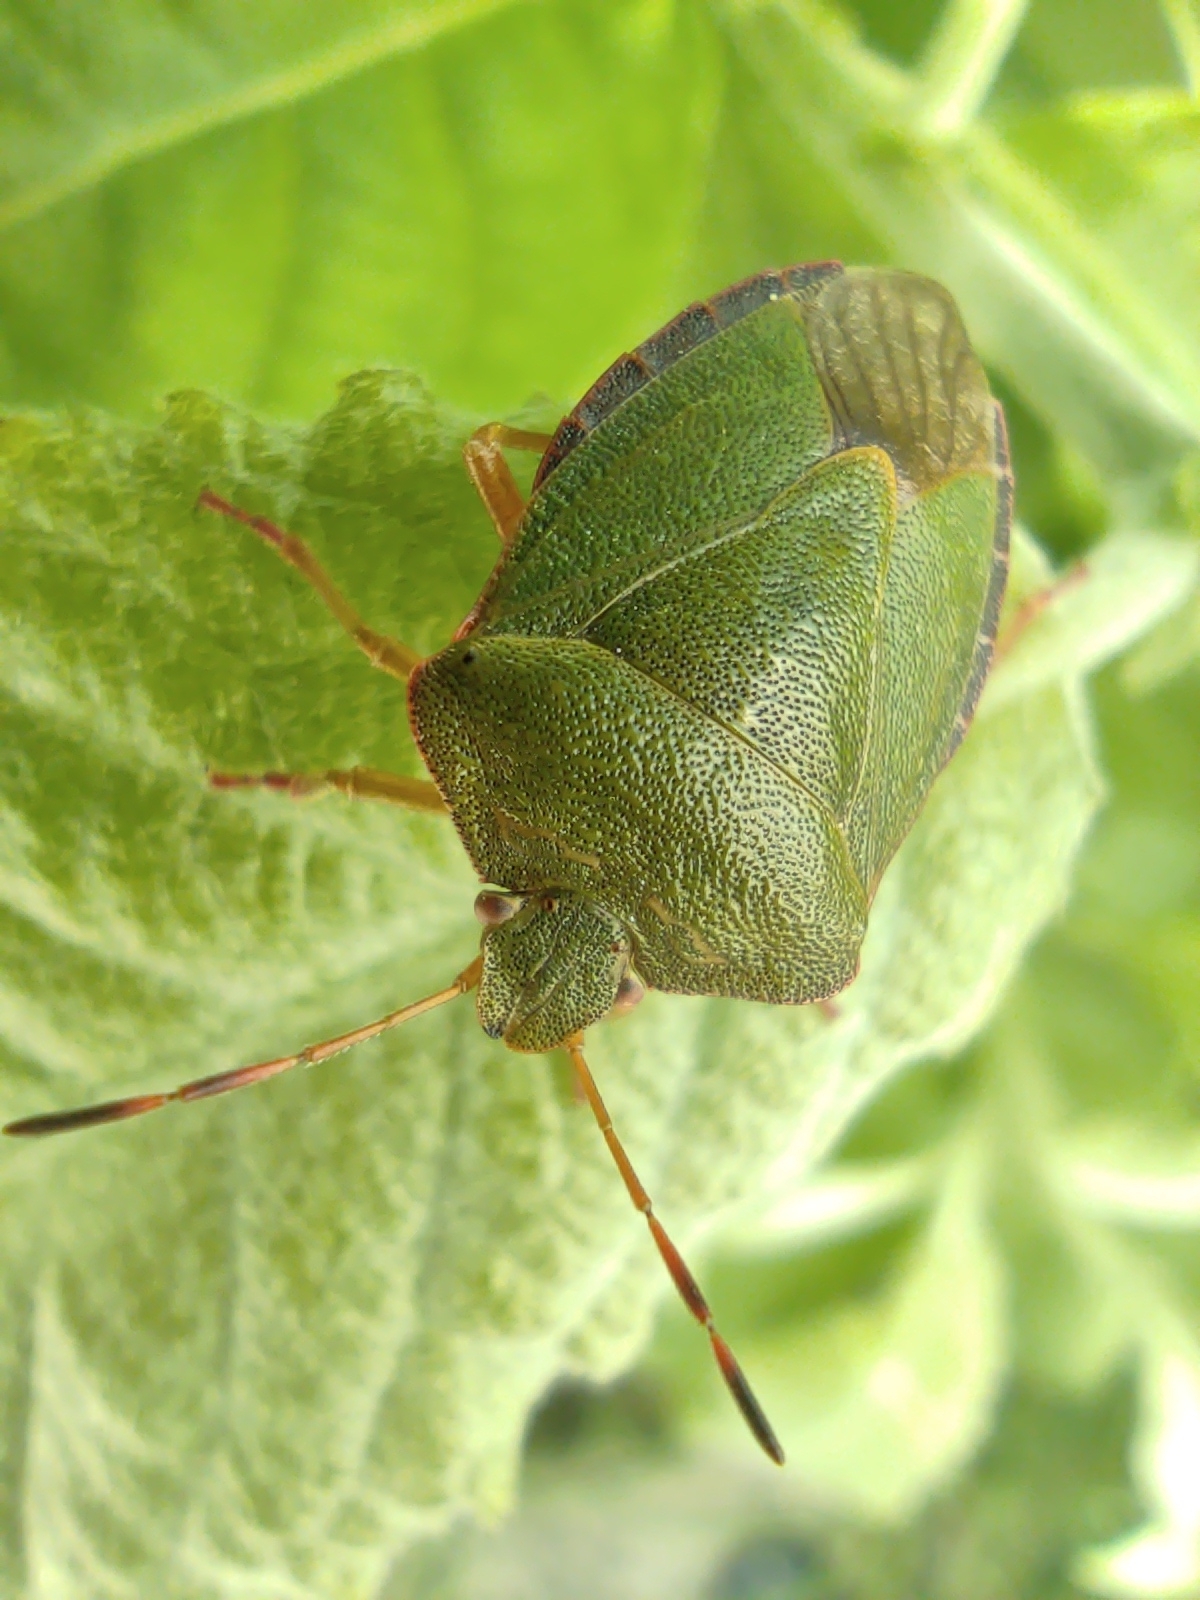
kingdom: Animalia
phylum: Arthropoda
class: Insecta
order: Hemiptera
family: Pentatomidae
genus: Palomena
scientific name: Palomena prasina
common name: Green shieldbug
